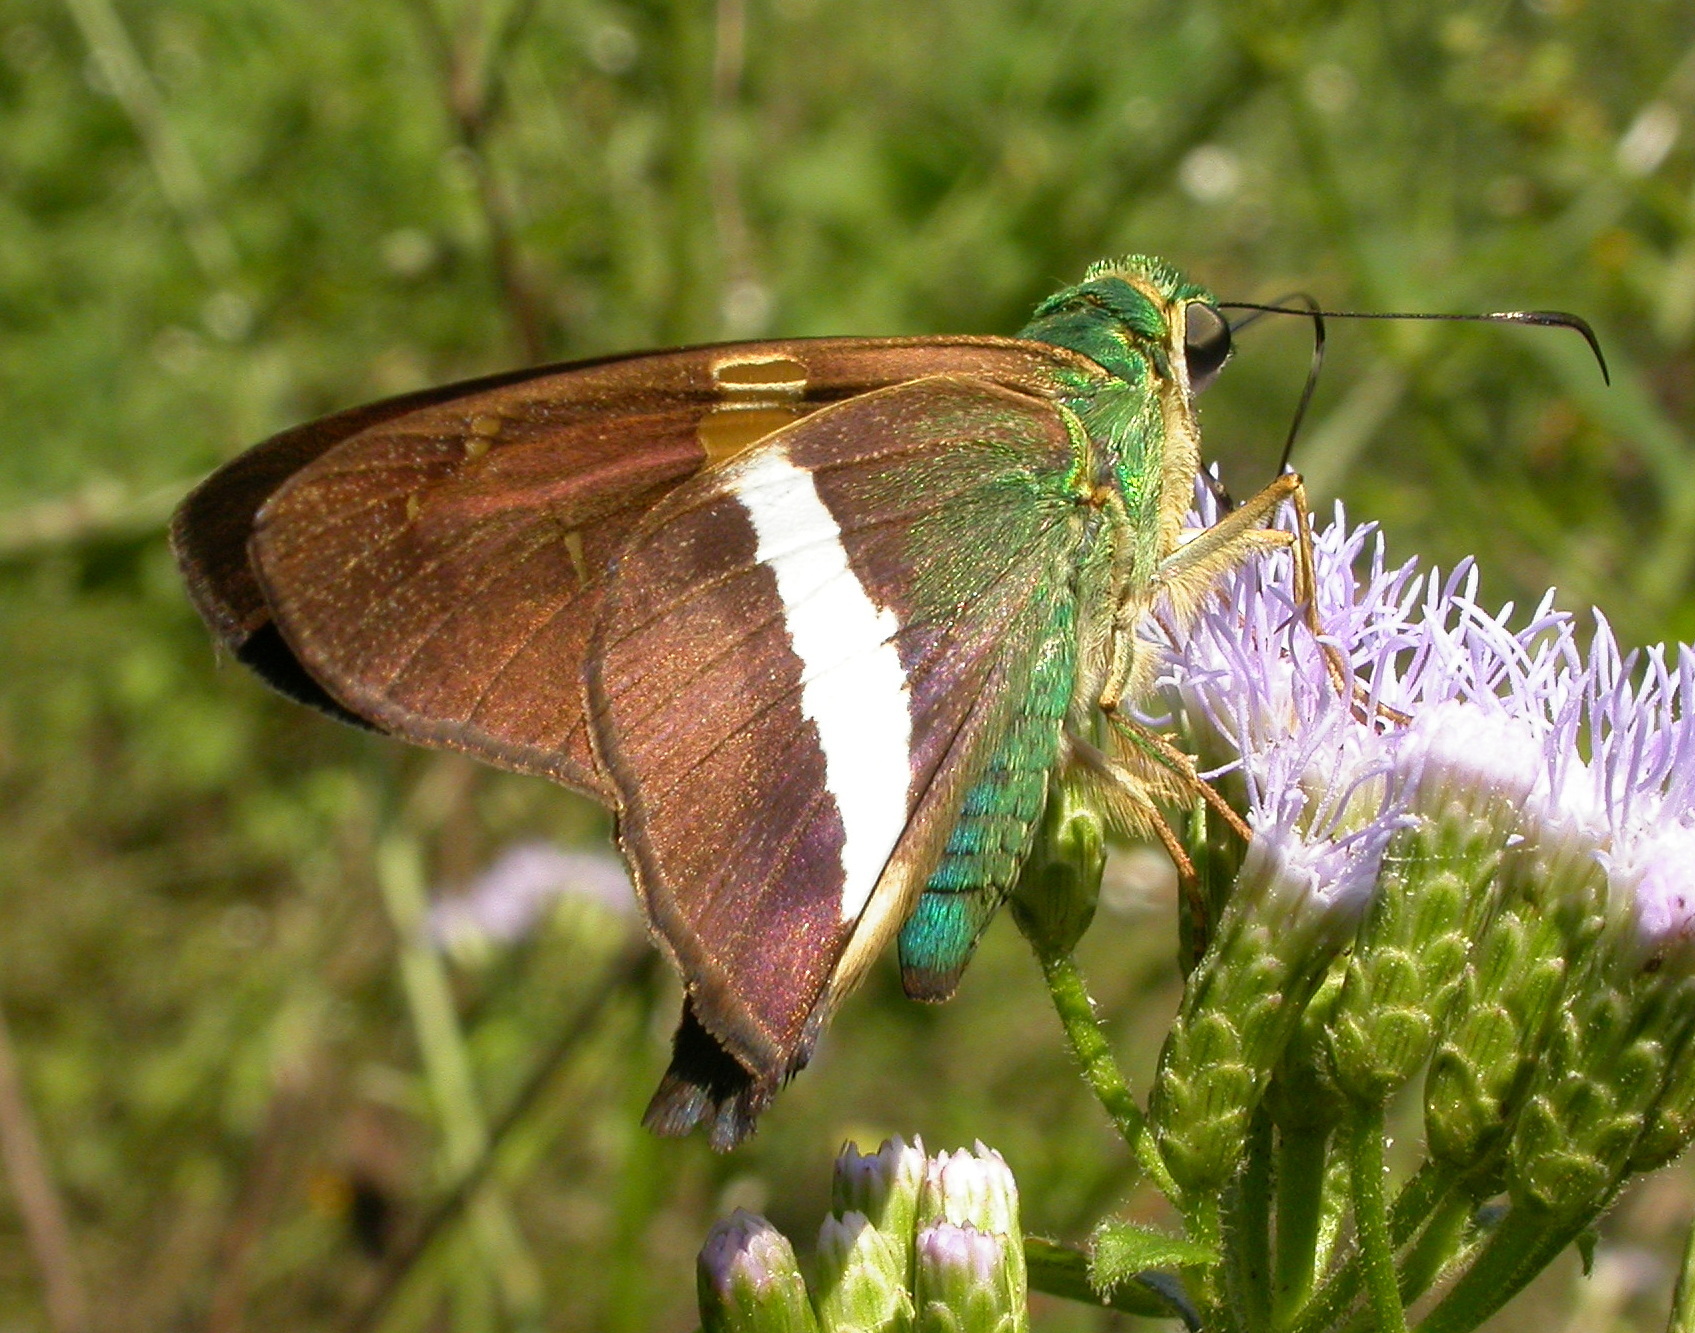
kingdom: Animalia
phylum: Arthropoda
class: Insecta
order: Lepidoptera
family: Hesperiidae
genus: Aguna
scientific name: Aguna claxon
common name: Emerald aguna
